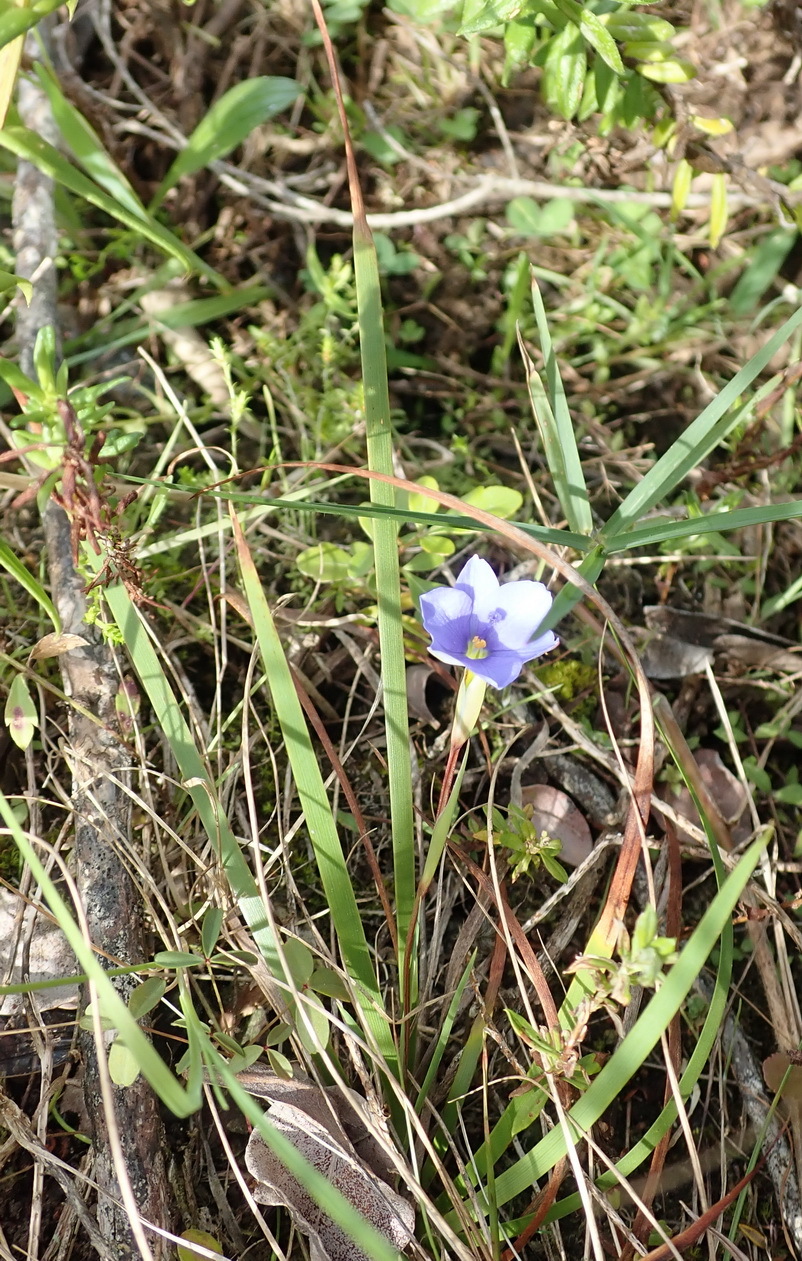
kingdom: Plantae
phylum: Tracheophyta
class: Liliopsida
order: Asparagales
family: Iridaceae
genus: Aristea
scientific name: Aristea pusilla
